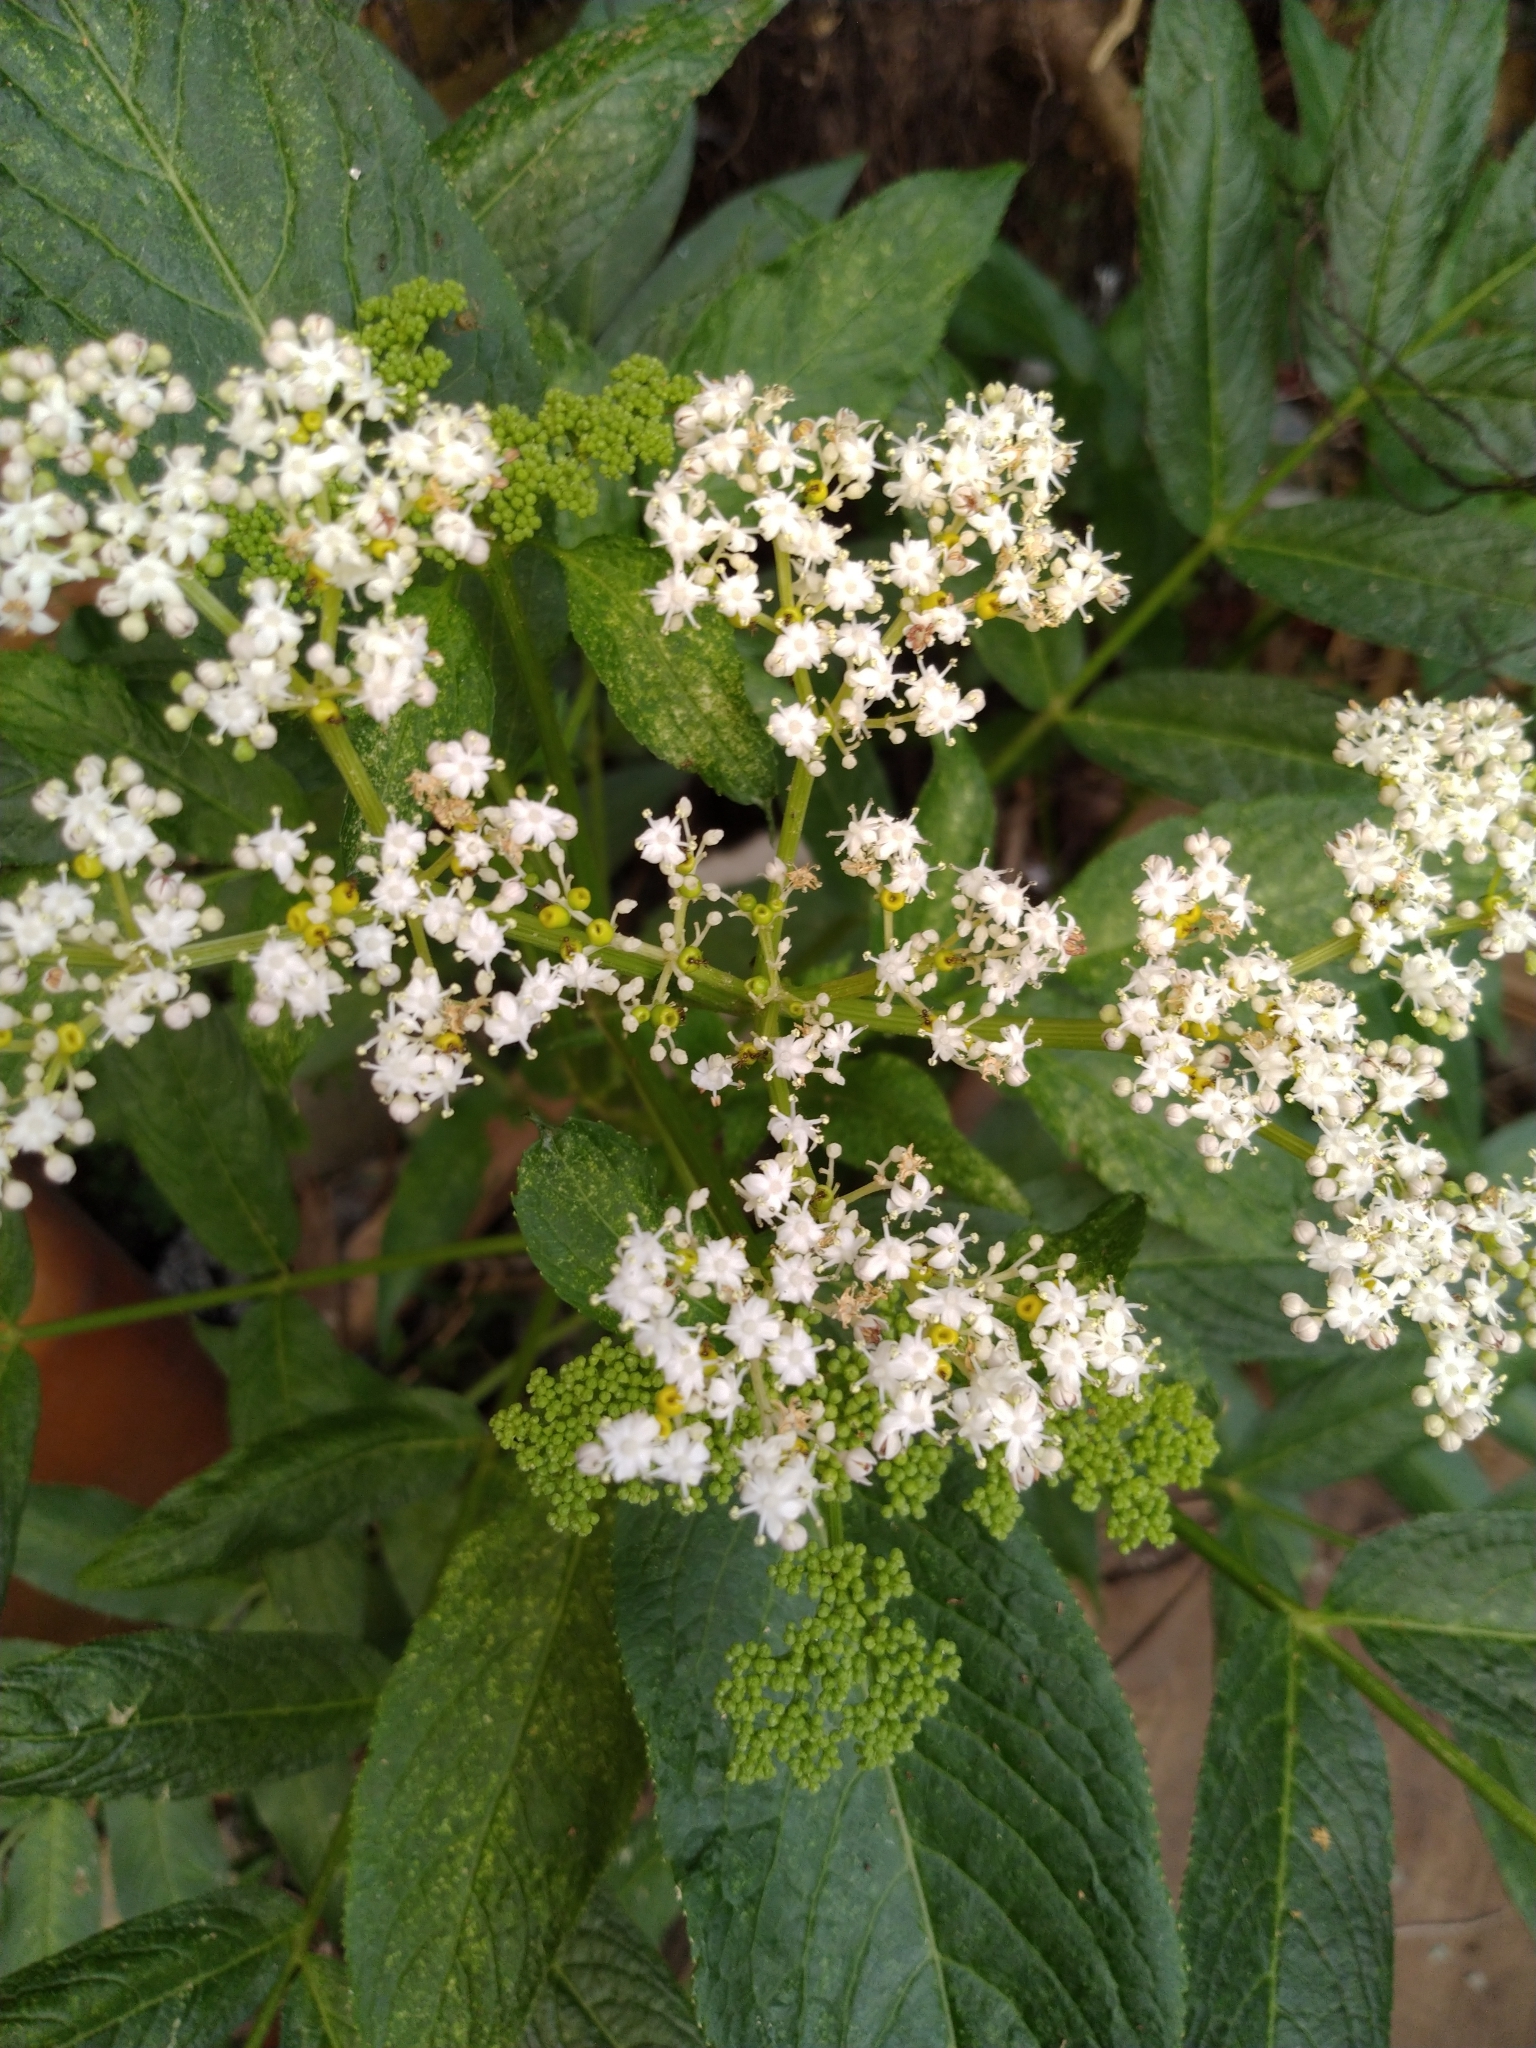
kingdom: Plantae
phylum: Tracheophyta
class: Magnoliopsida
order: Dipsacales
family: Viburnaceae
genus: Sambucus
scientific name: Sambucus javanica
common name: Chinese elder
